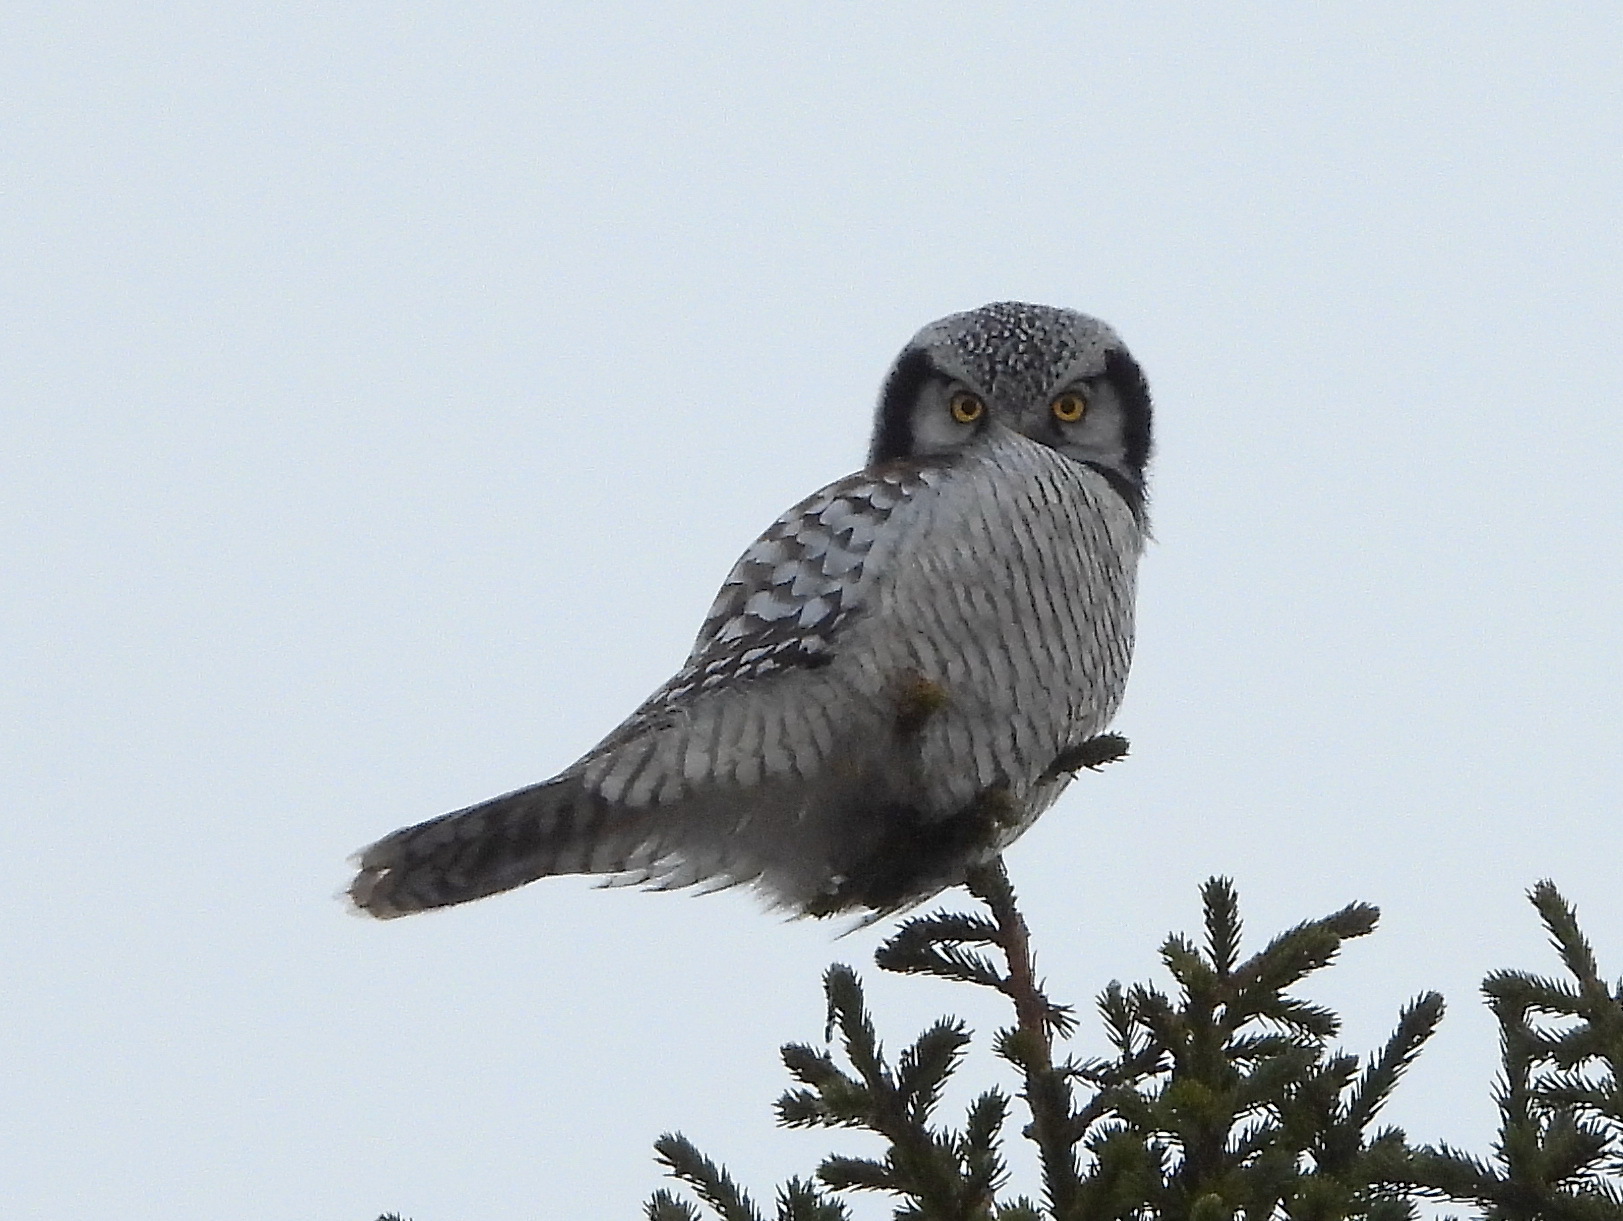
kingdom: Animalia
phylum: Chordata
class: Aves
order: Strigiformes
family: Strigidae
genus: Surnia
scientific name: Surnia ulula
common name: Northern hawk-owl
